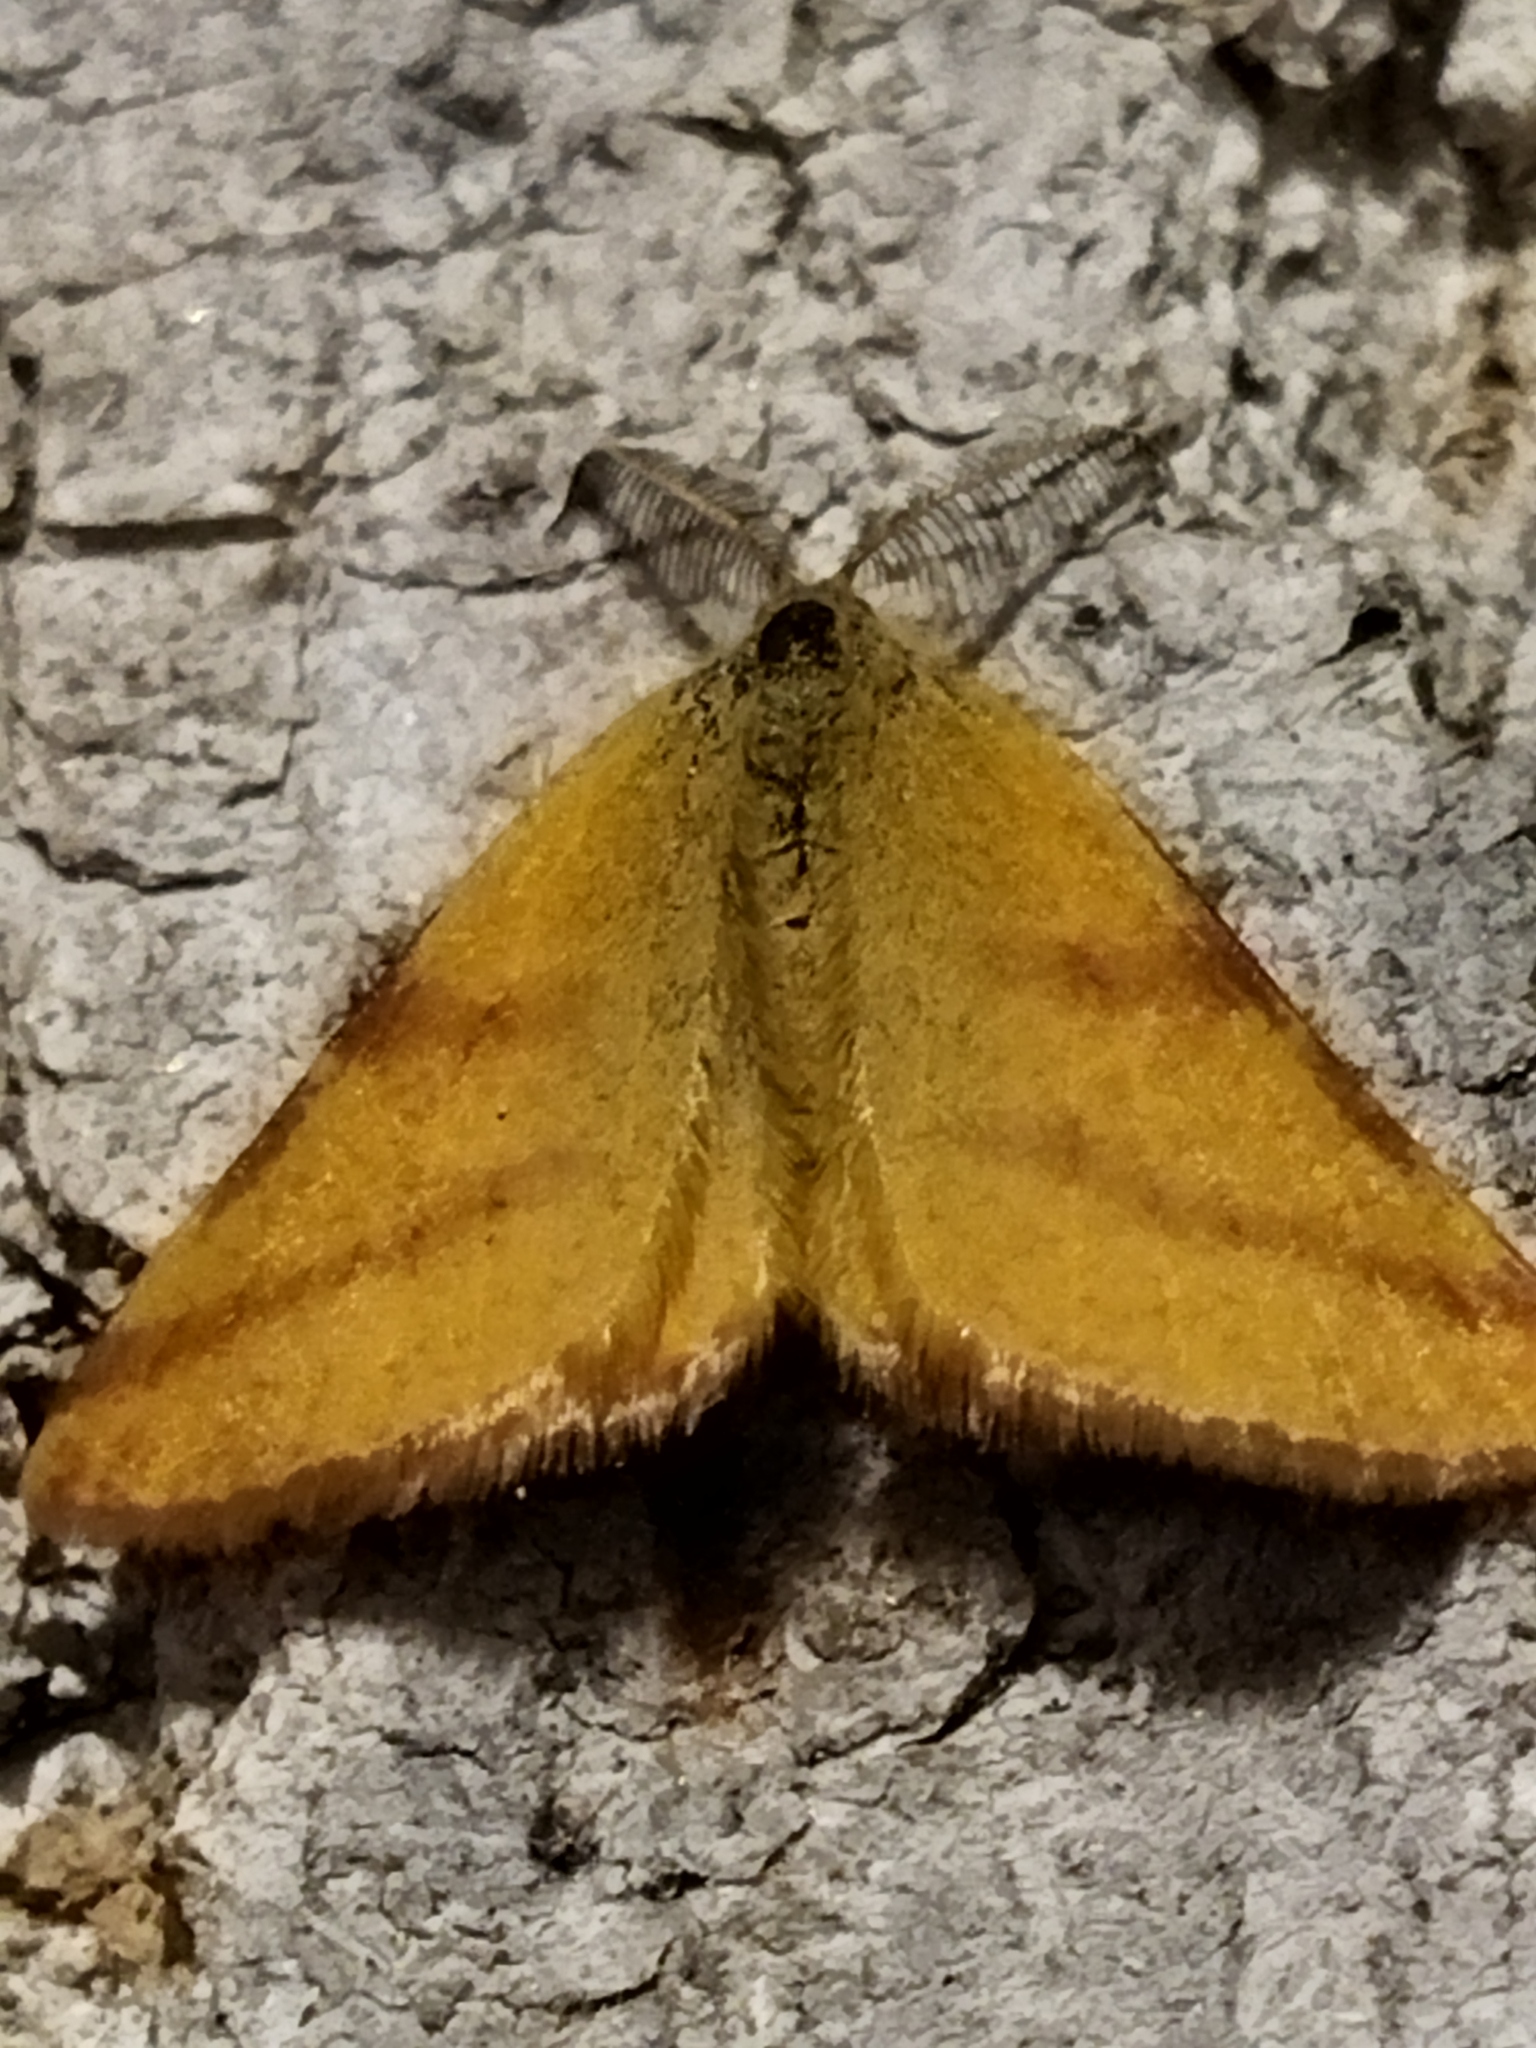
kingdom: Animalia
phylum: Arthropoda
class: Insecta
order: Lepidoptera
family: Geometridae
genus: Lythria
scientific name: Lythria purpuraria
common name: Purple-barred yellow
